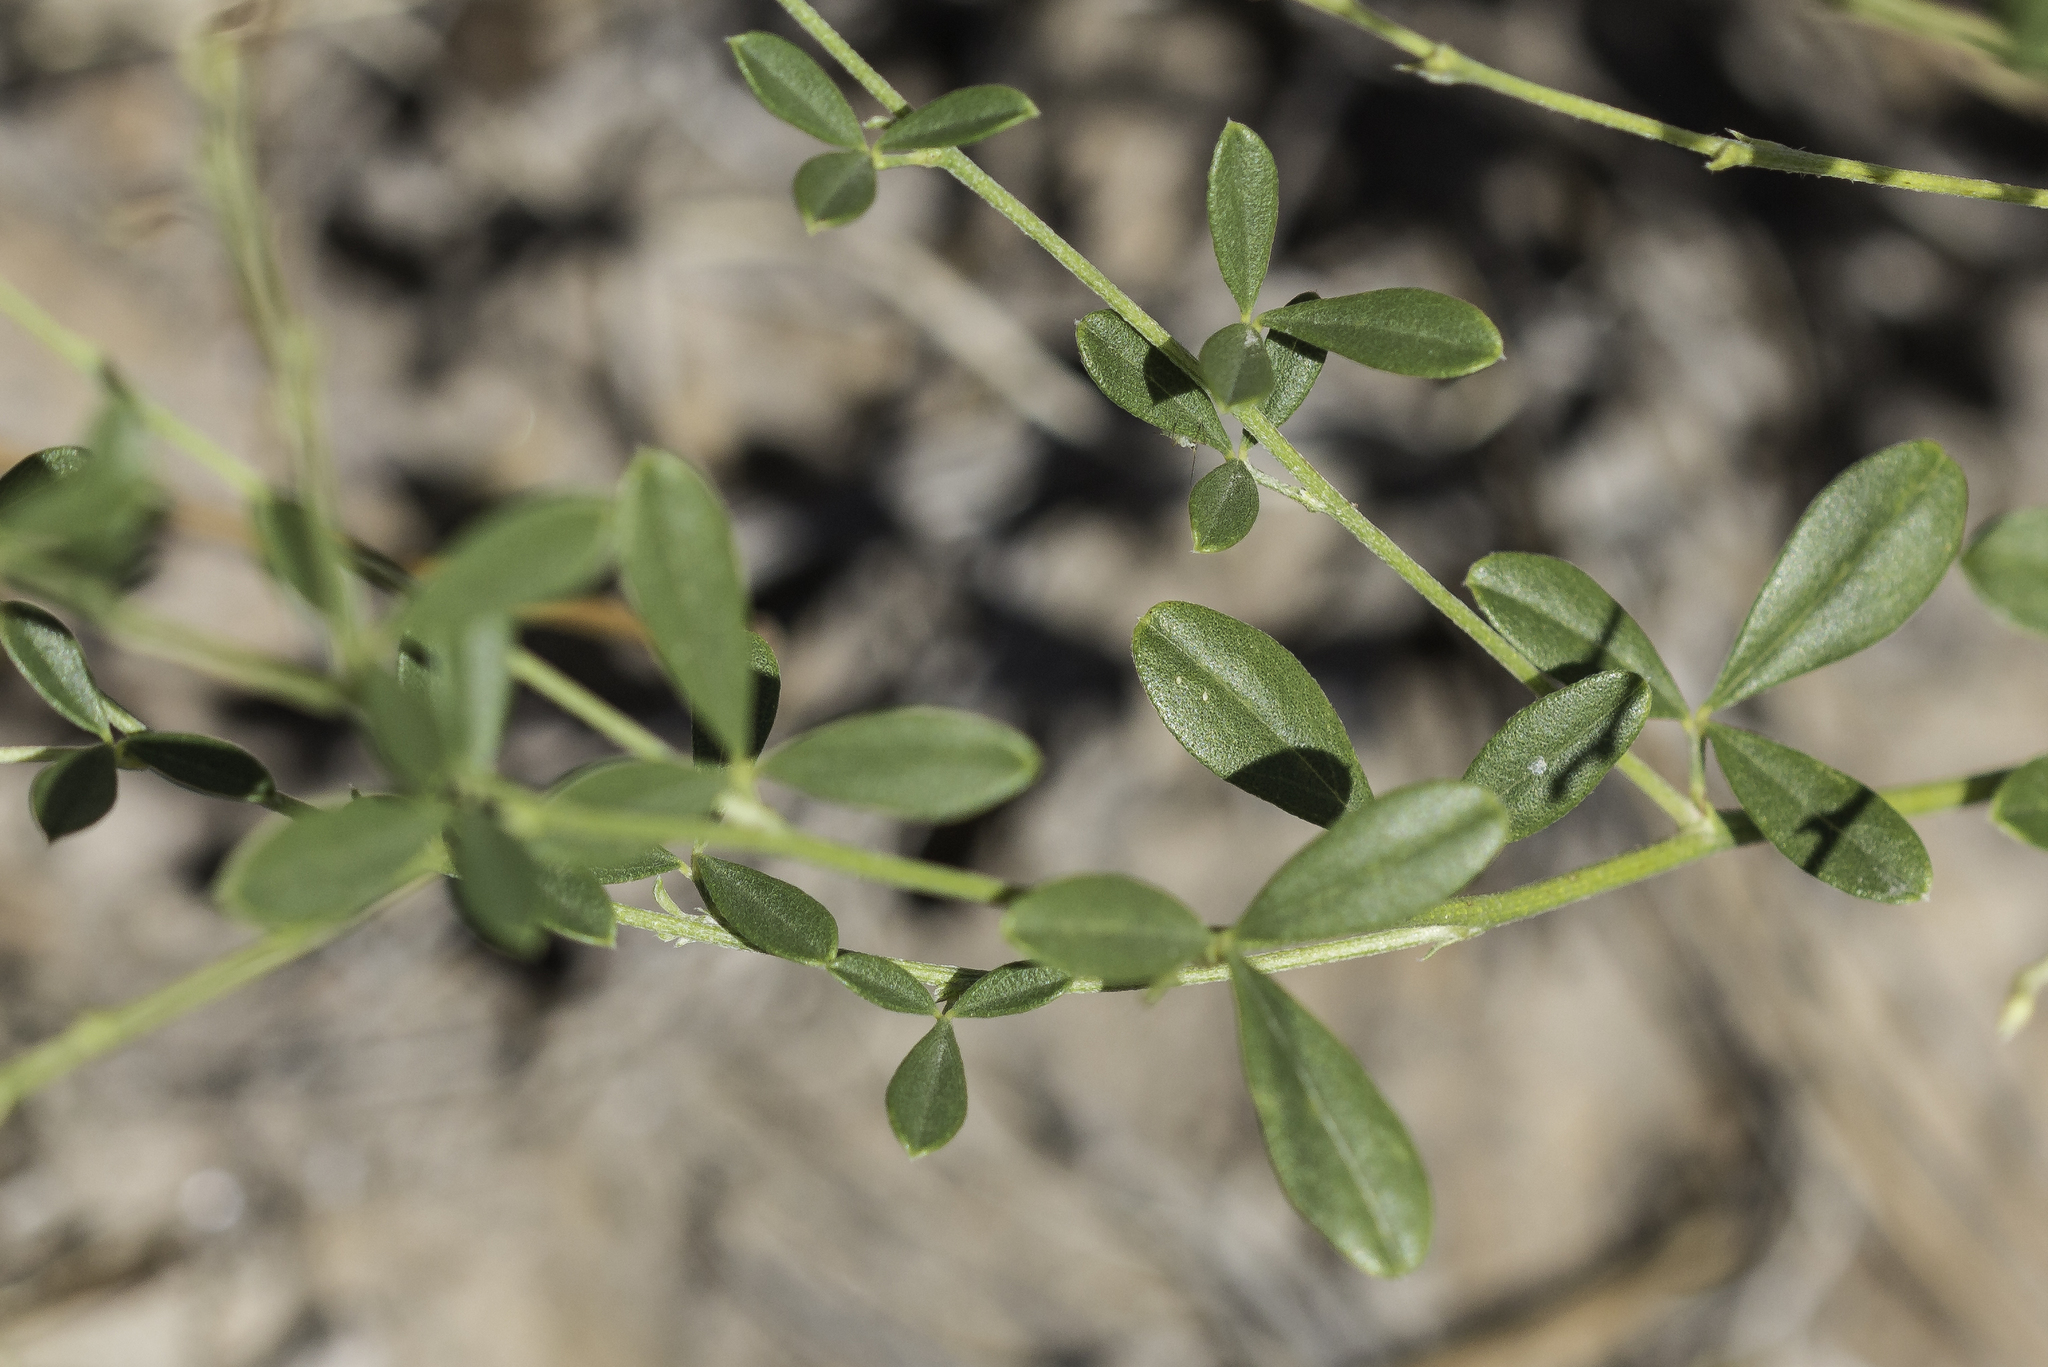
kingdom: Plantae
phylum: Tracheophyta
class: Magnoliopsida
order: Fabales
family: Fabaceae
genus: Pediomelum
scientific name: Pediomelum tenuiflorum
